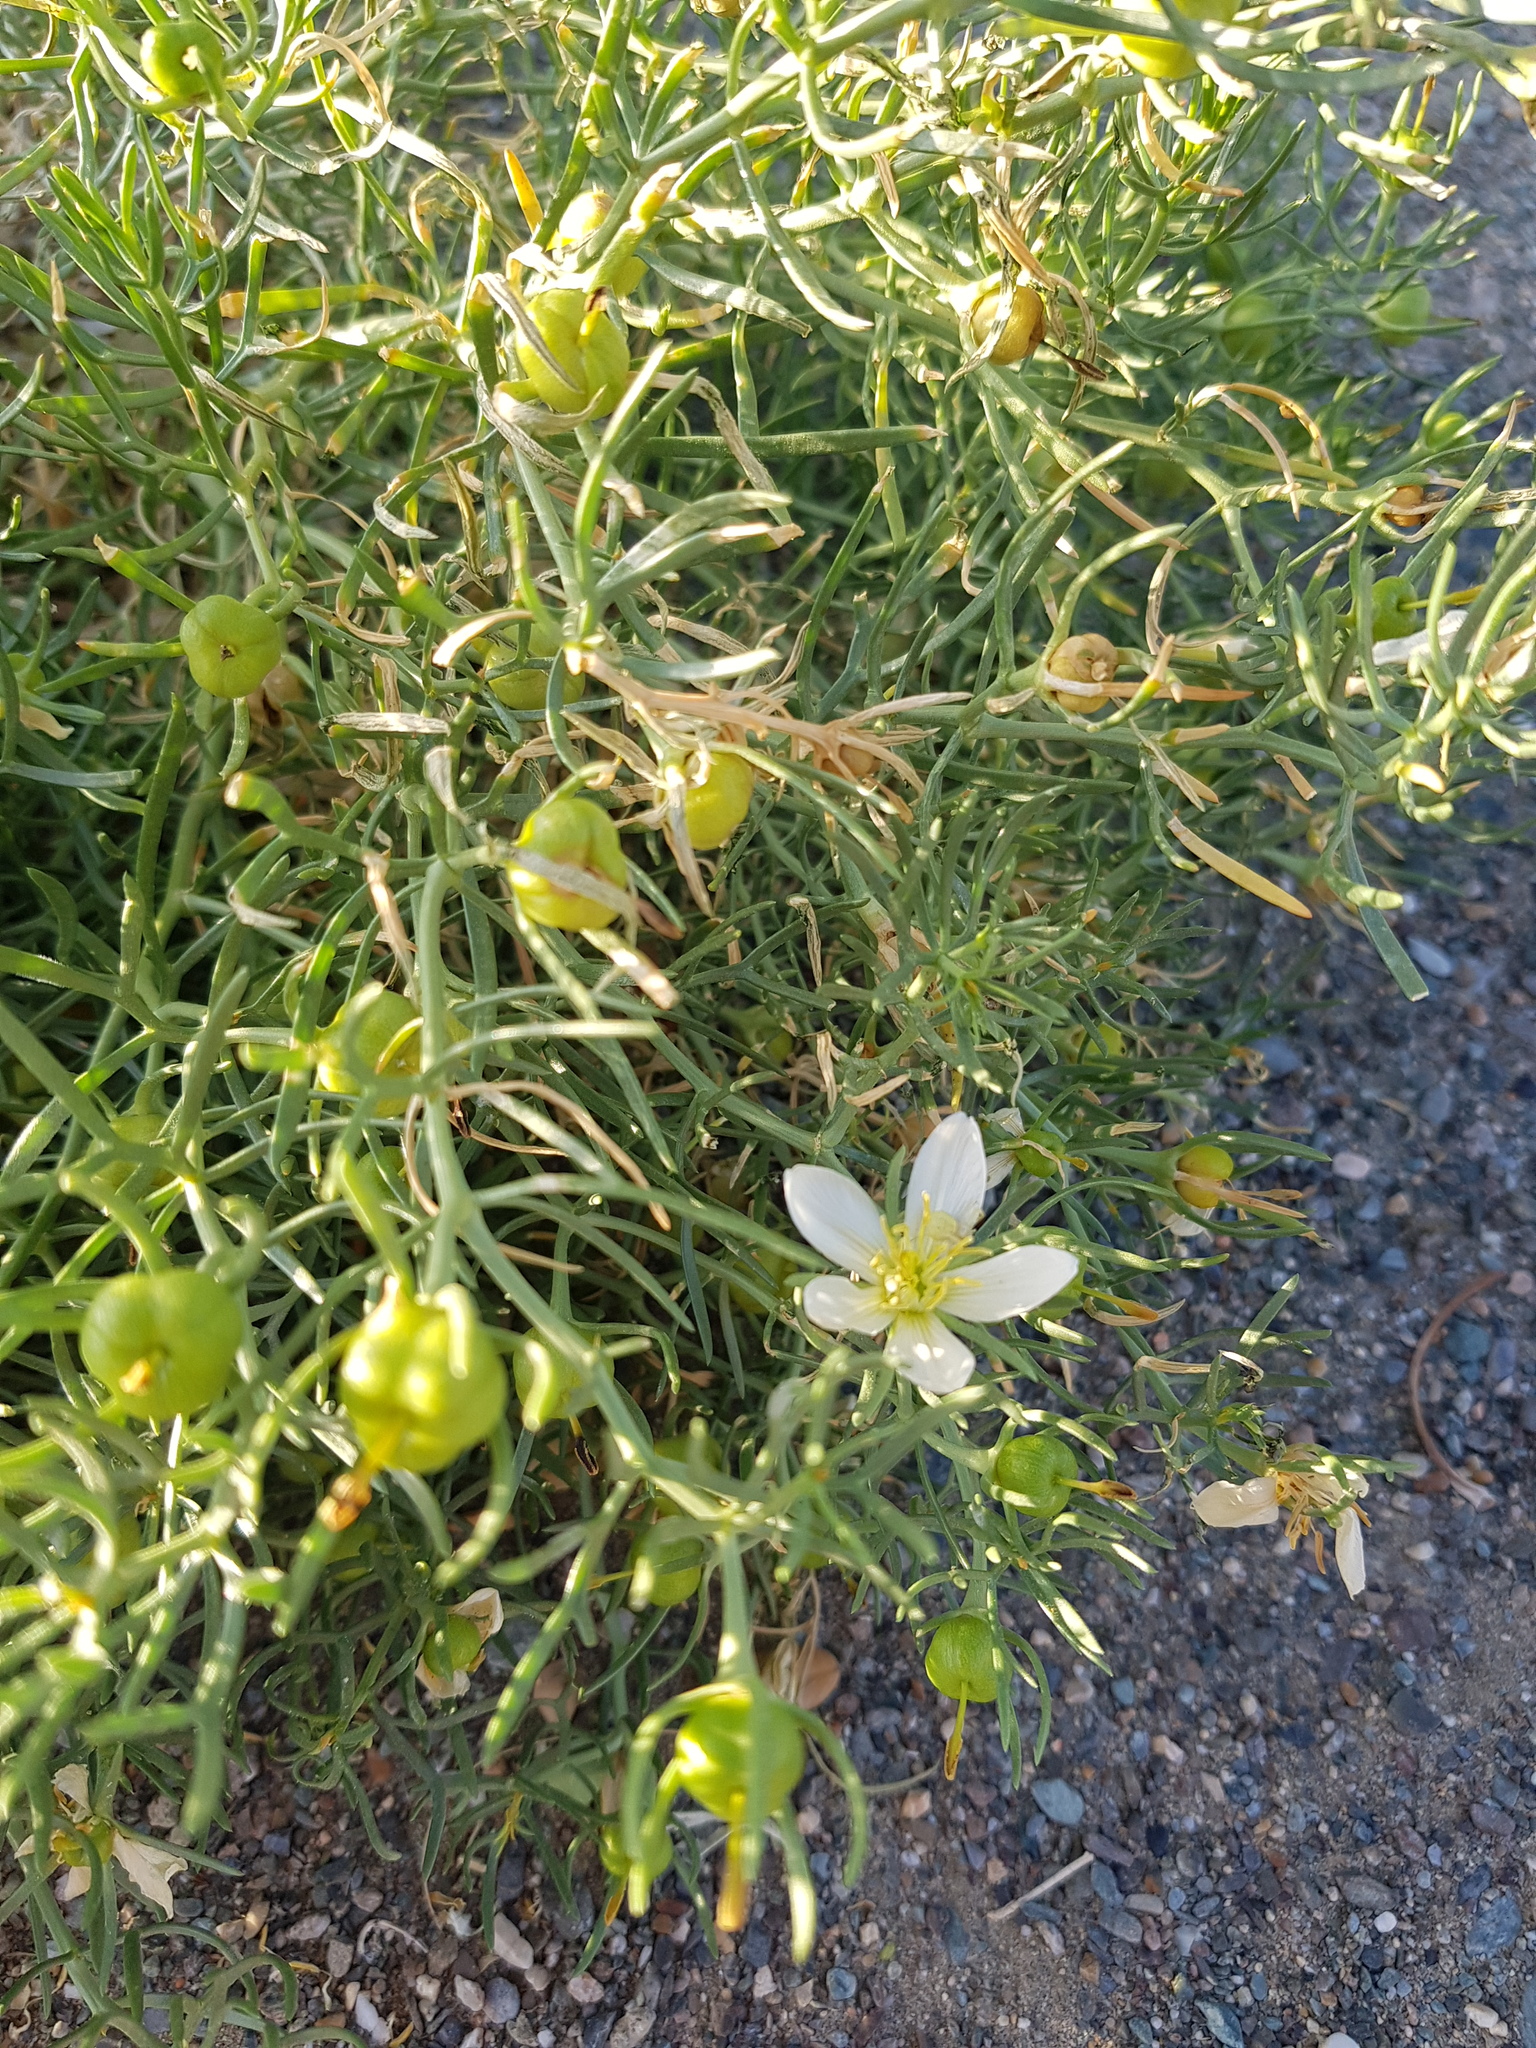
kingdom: Plantae
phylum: Tracheophyta
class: Magnoliopsida
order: Sapindales
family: Tetradiclidaceae
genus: Peganum
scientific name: Peganum harmala
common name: Harmal peganum
